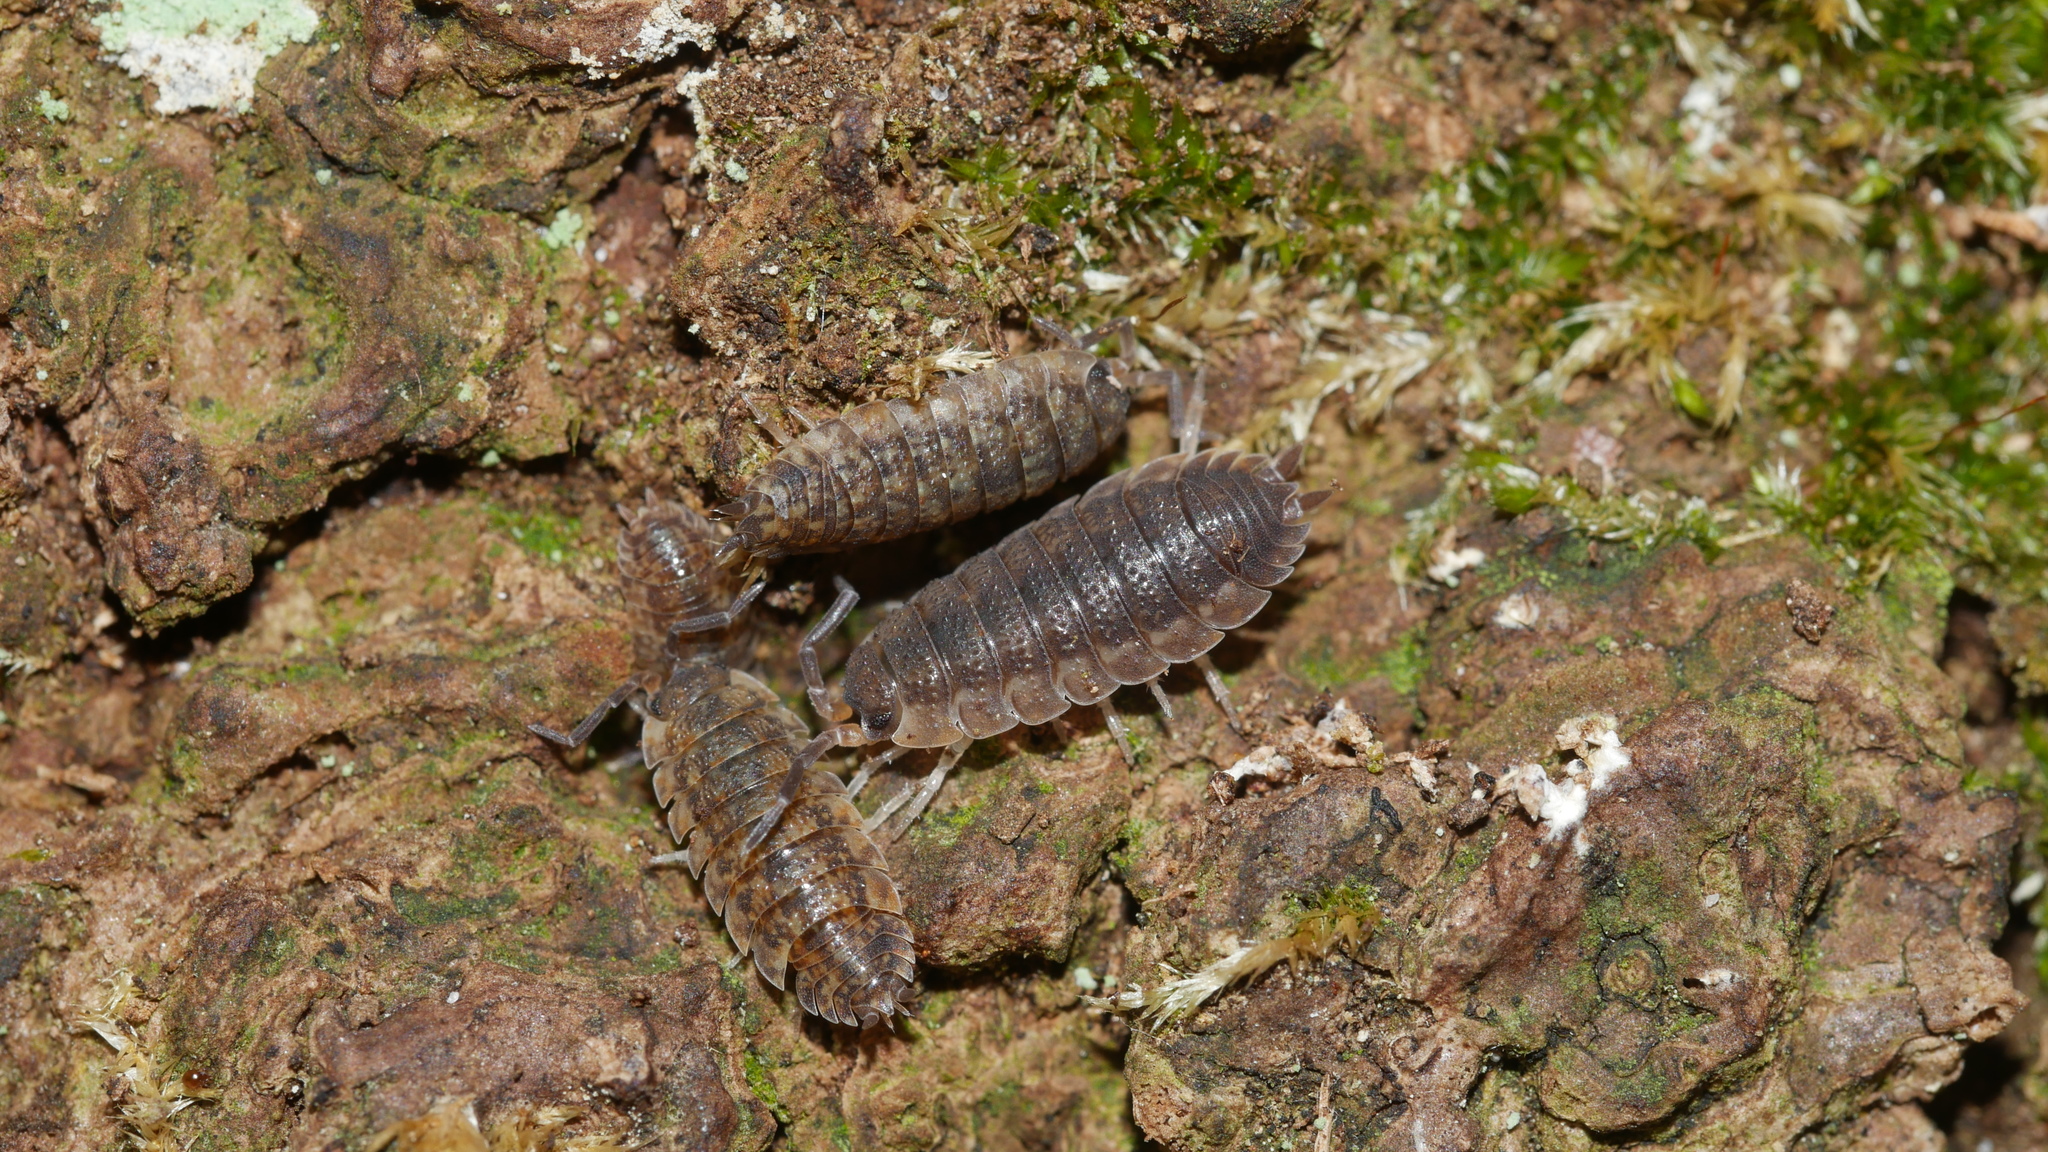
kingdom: Animalia
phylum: Arthropoda
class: Malacostraca
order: Isopoda
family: Porcellionidae
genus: Porcellio
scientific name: Porcellio scaber
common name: Common rough woodlouse
